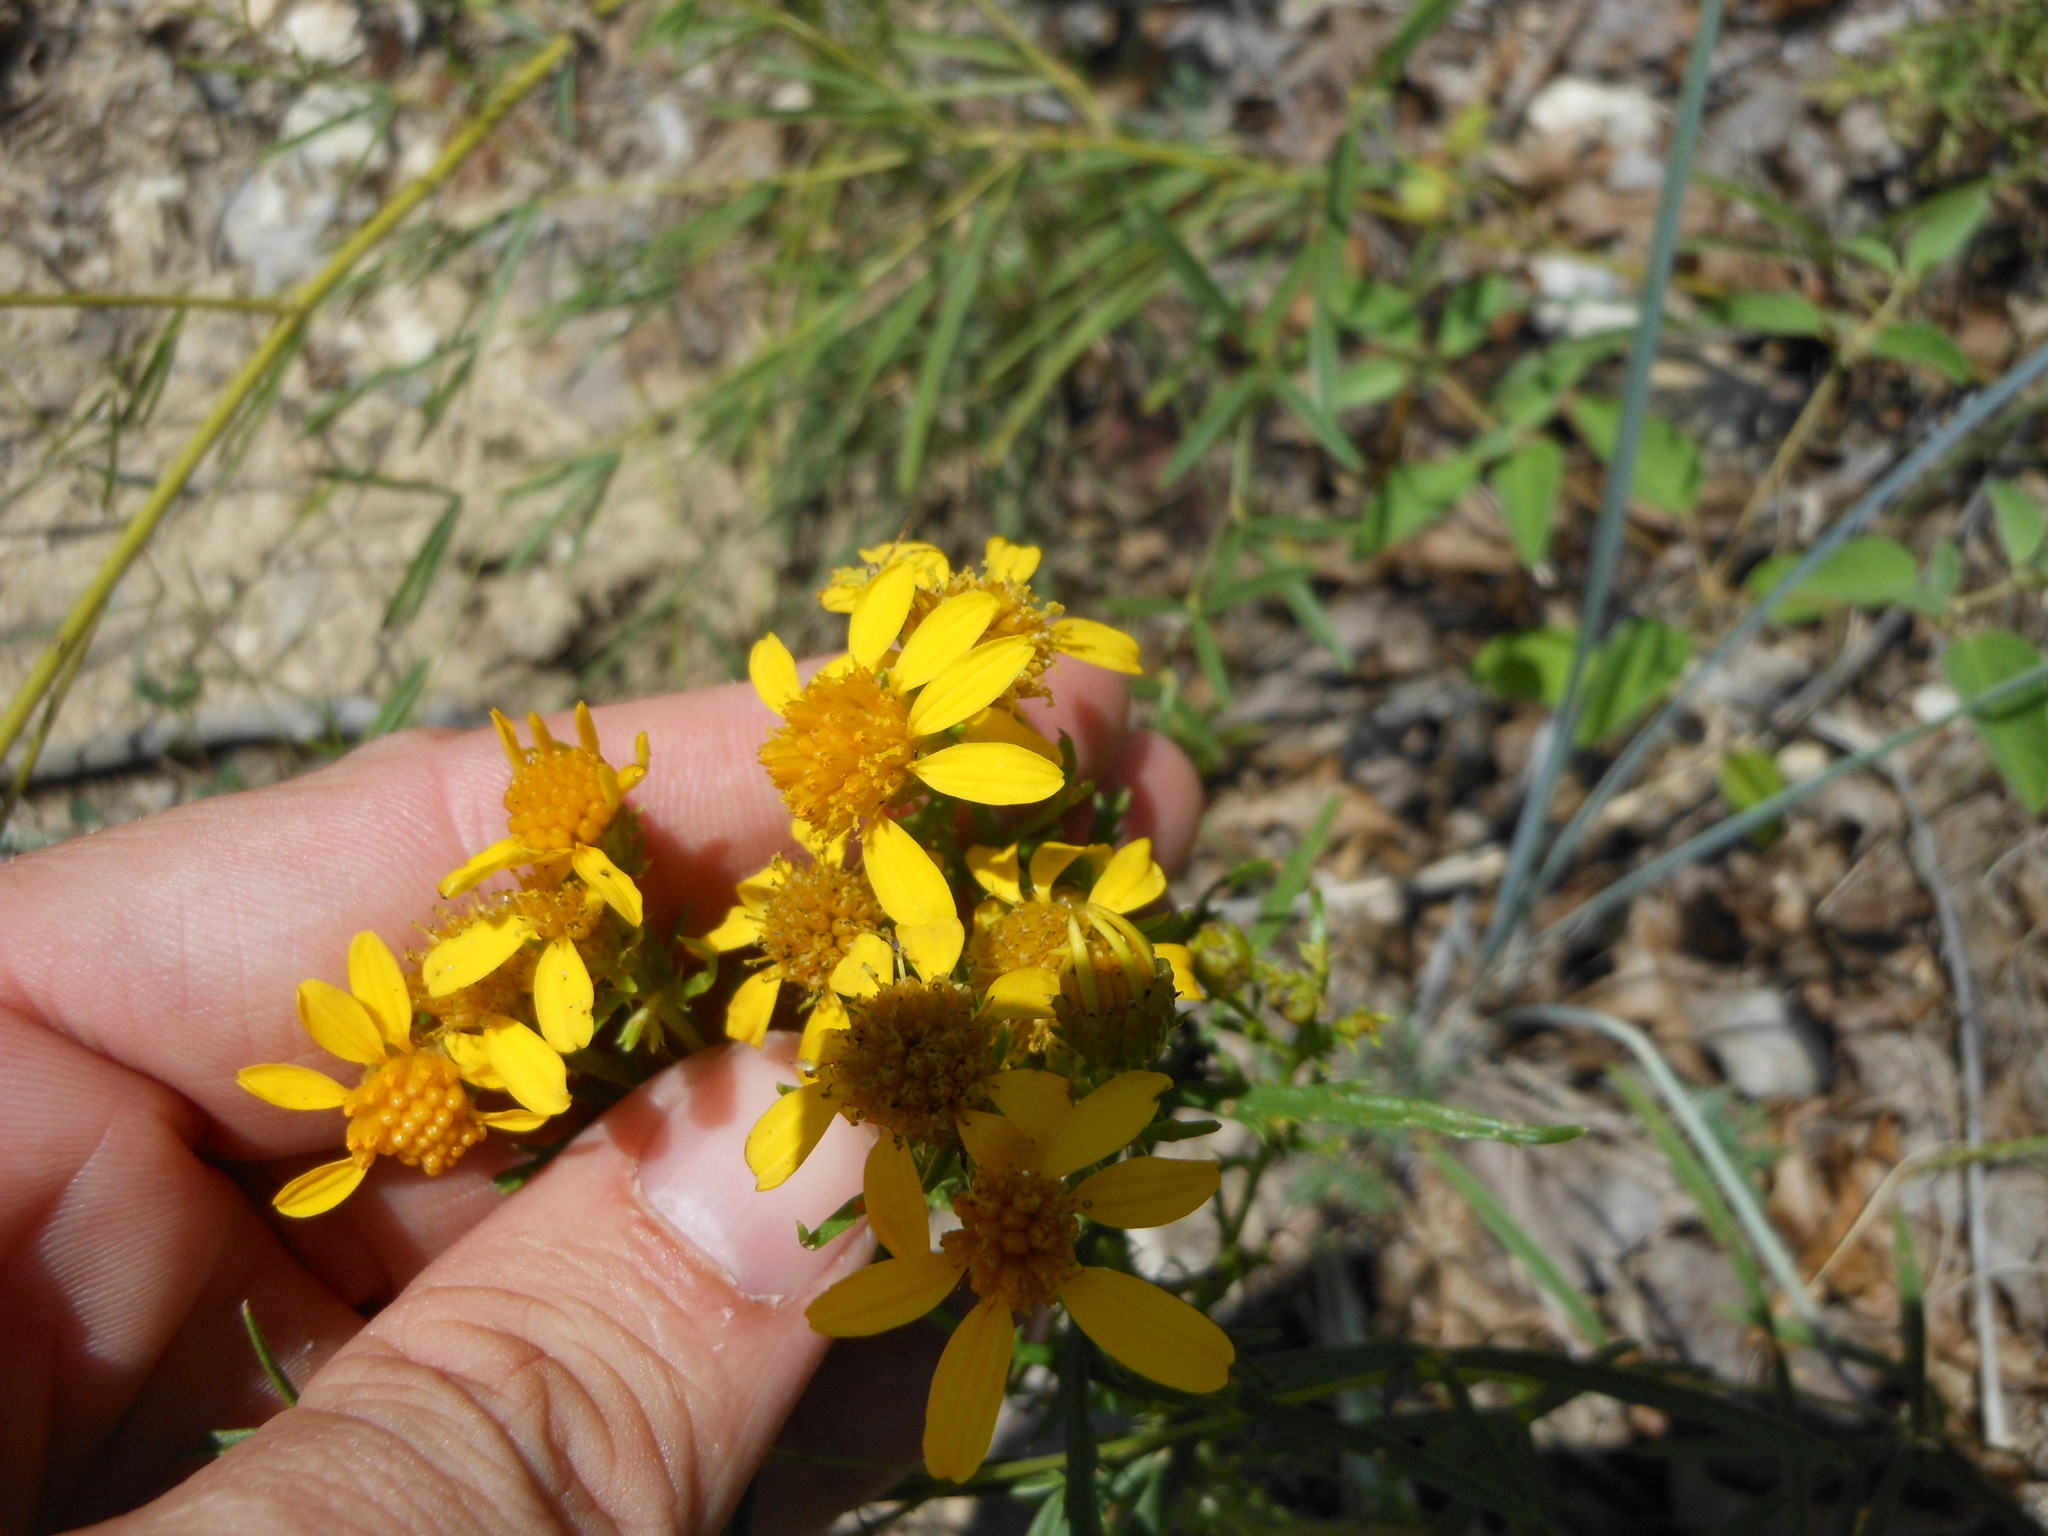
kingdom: Plantae
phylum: Tracheophyta
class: Magnoliopsida
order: Asterales
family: Asteraceae
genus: Dysodiopsis
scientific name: Dysodiopsis tagetoides
